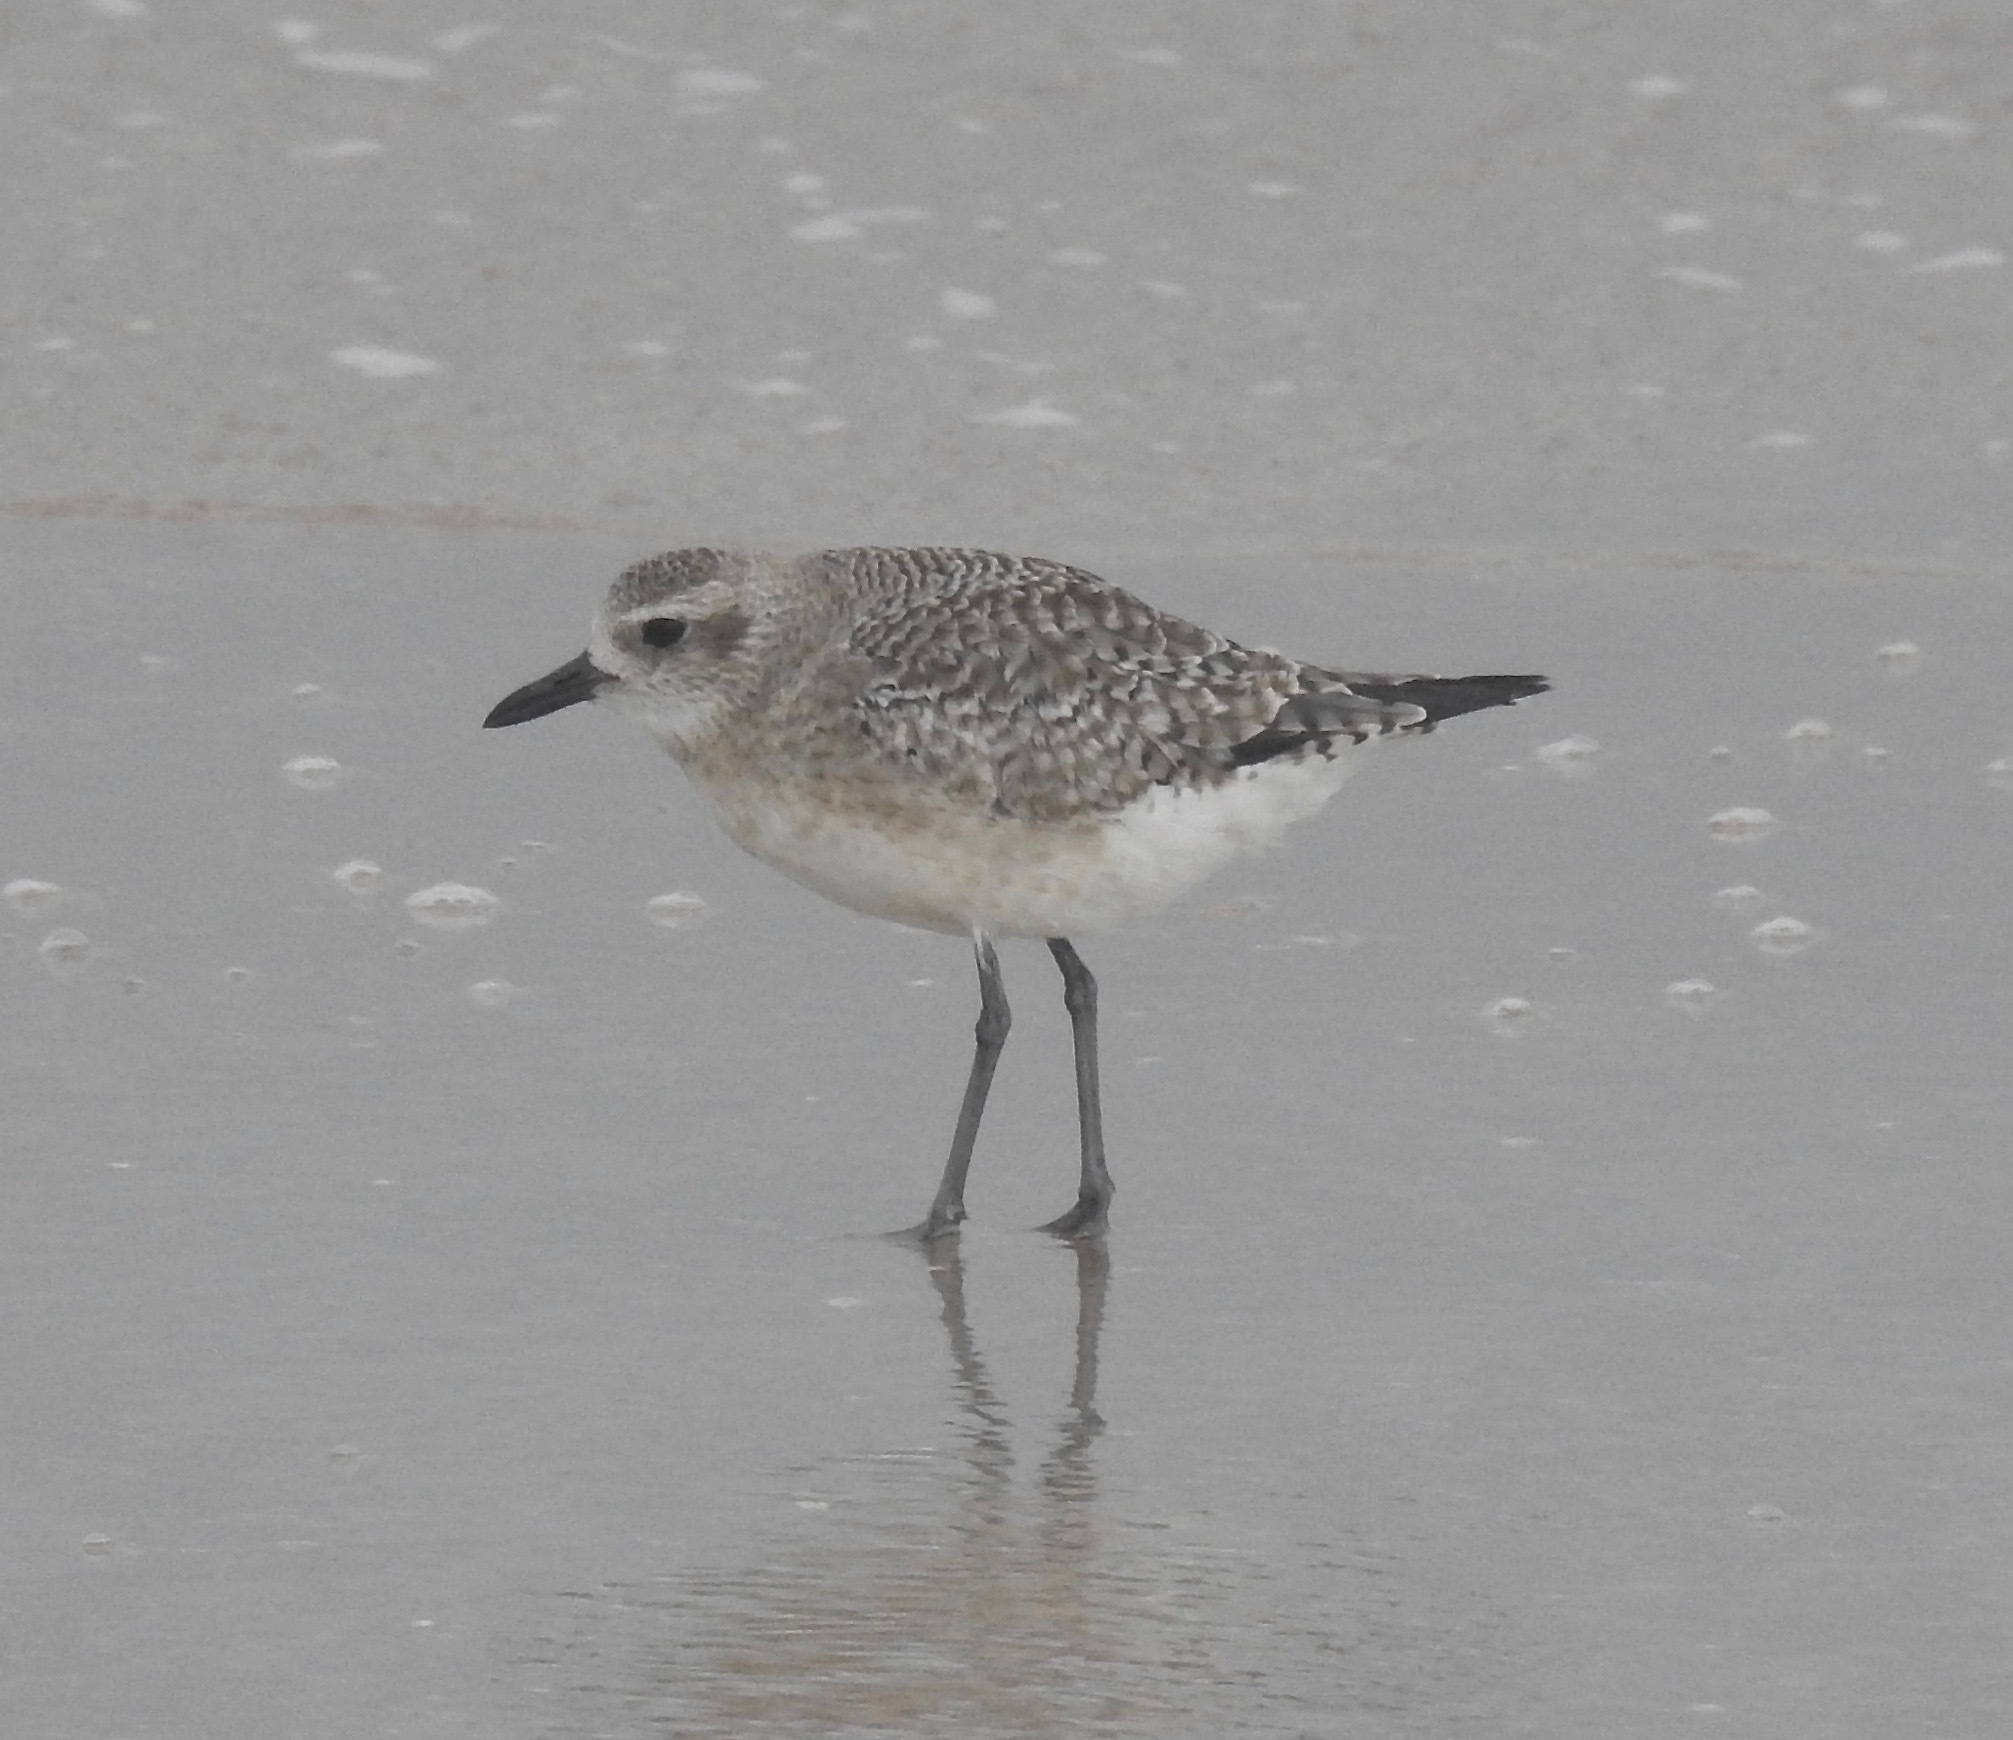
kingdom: Animalia
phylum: Chordata
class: Aves
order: Charadriiformes
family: Charadriidae
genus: Pluvialis
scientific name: Pluvialis squatarola
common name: Grey plover
